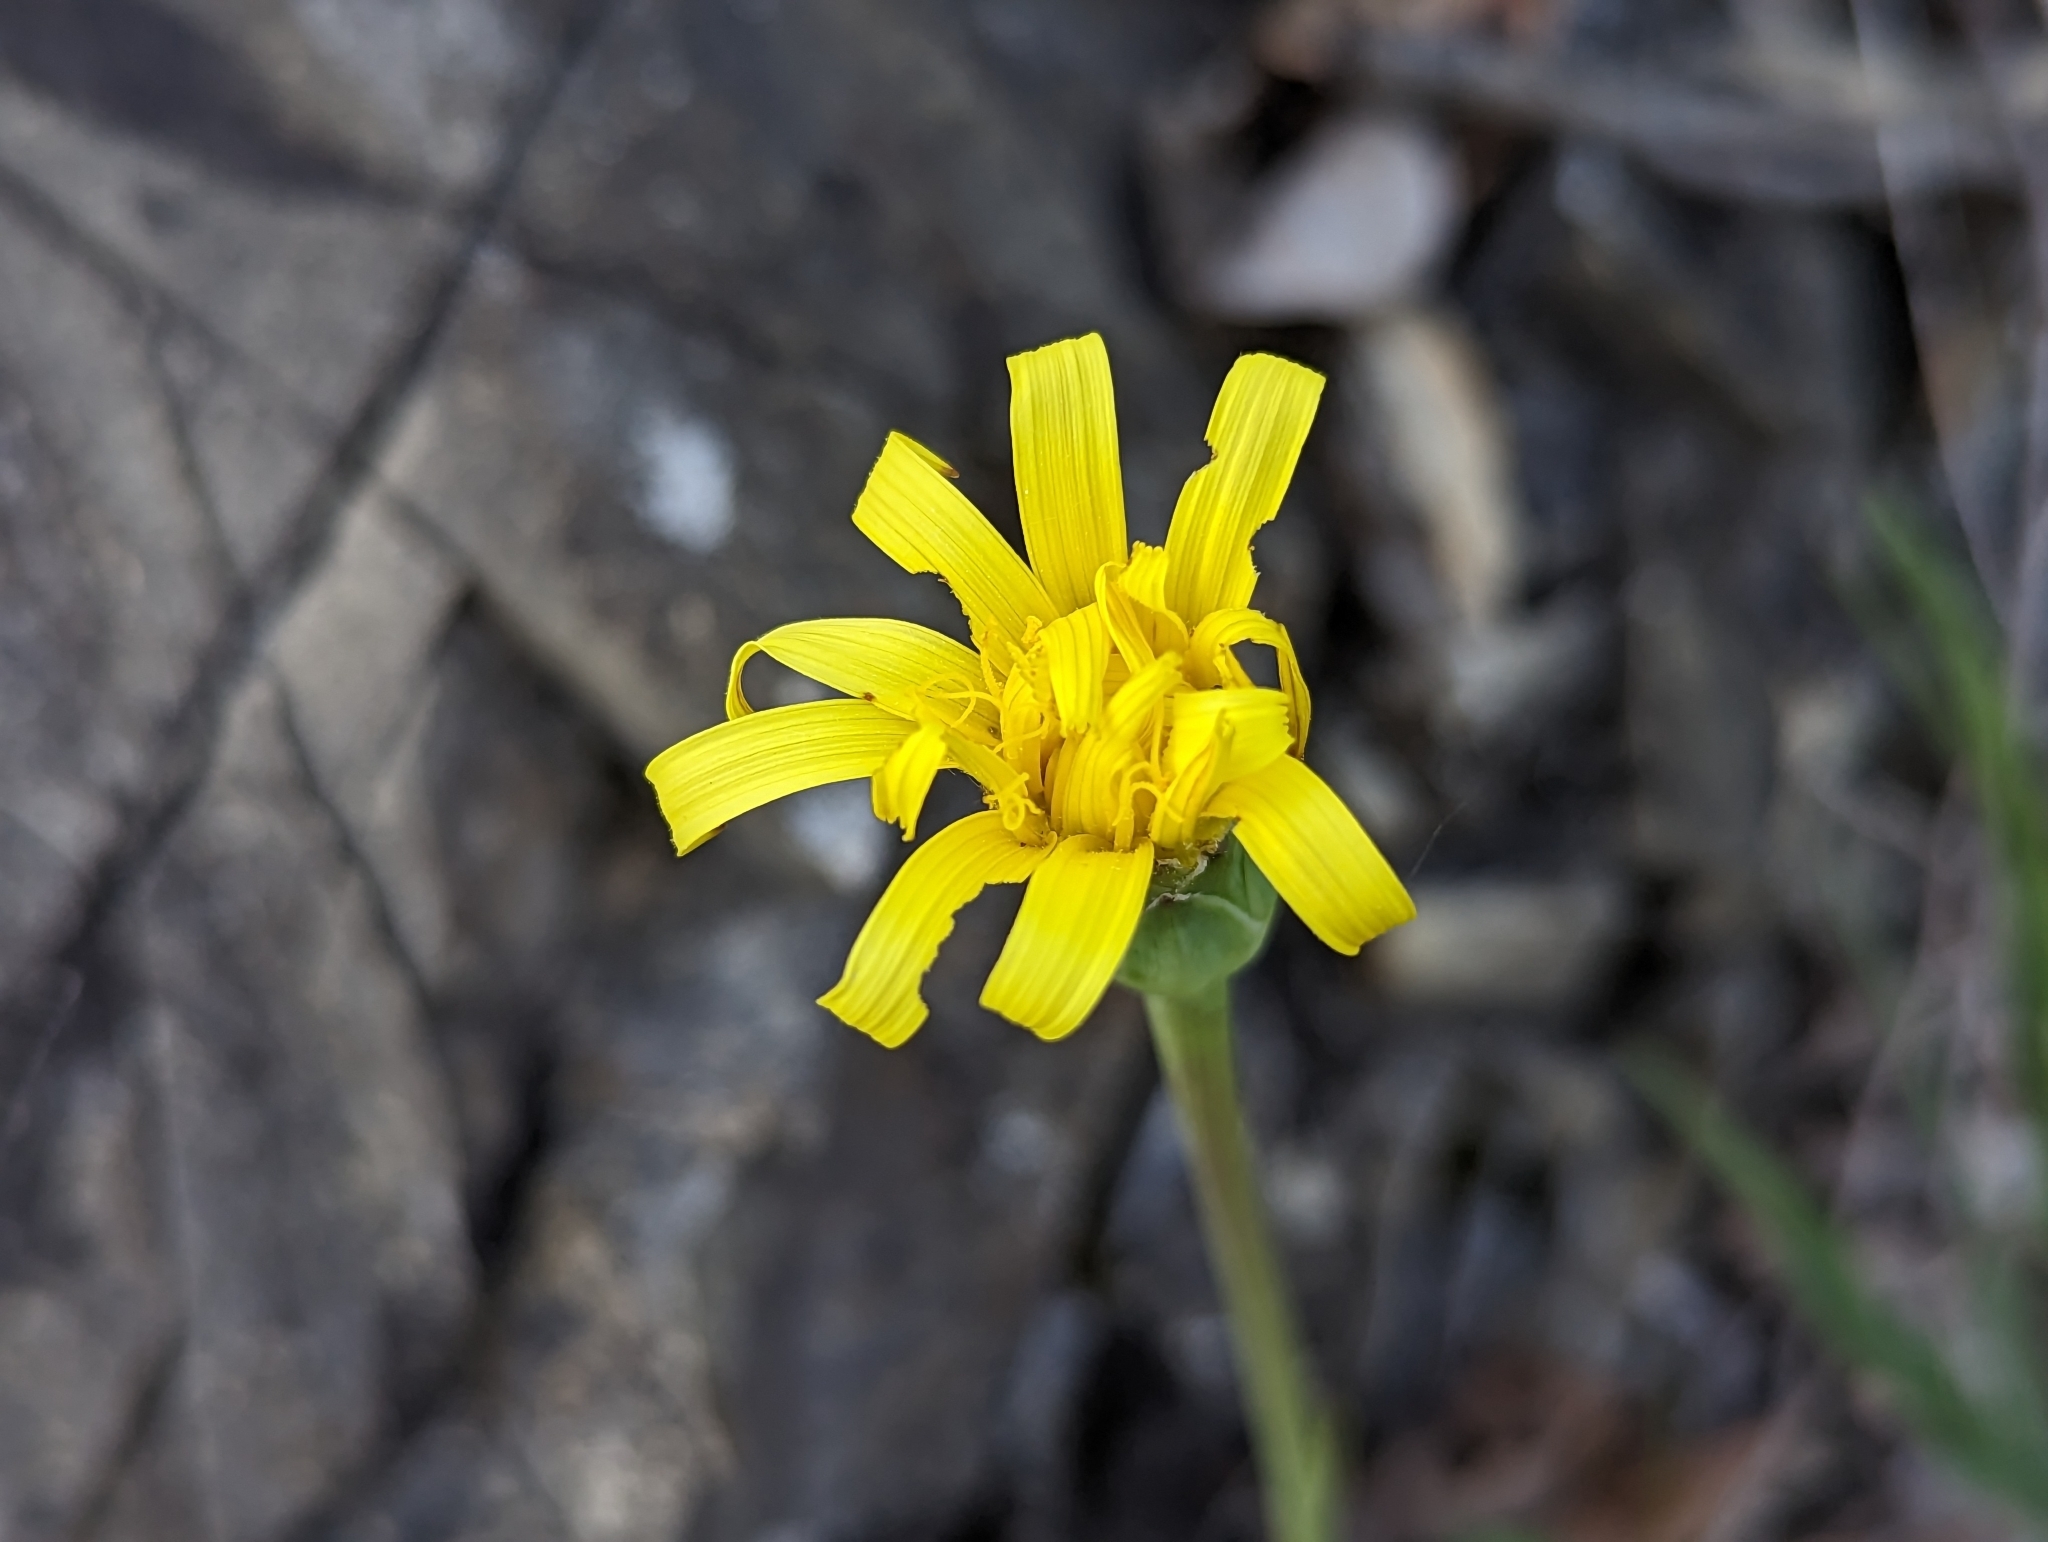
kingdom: Plantae
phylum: Tracheophyta
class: Magnoliopsida
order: Asterales
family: Asteraceae
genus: Takhtajaniantha
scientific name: Takhtajaniantha austriaca
